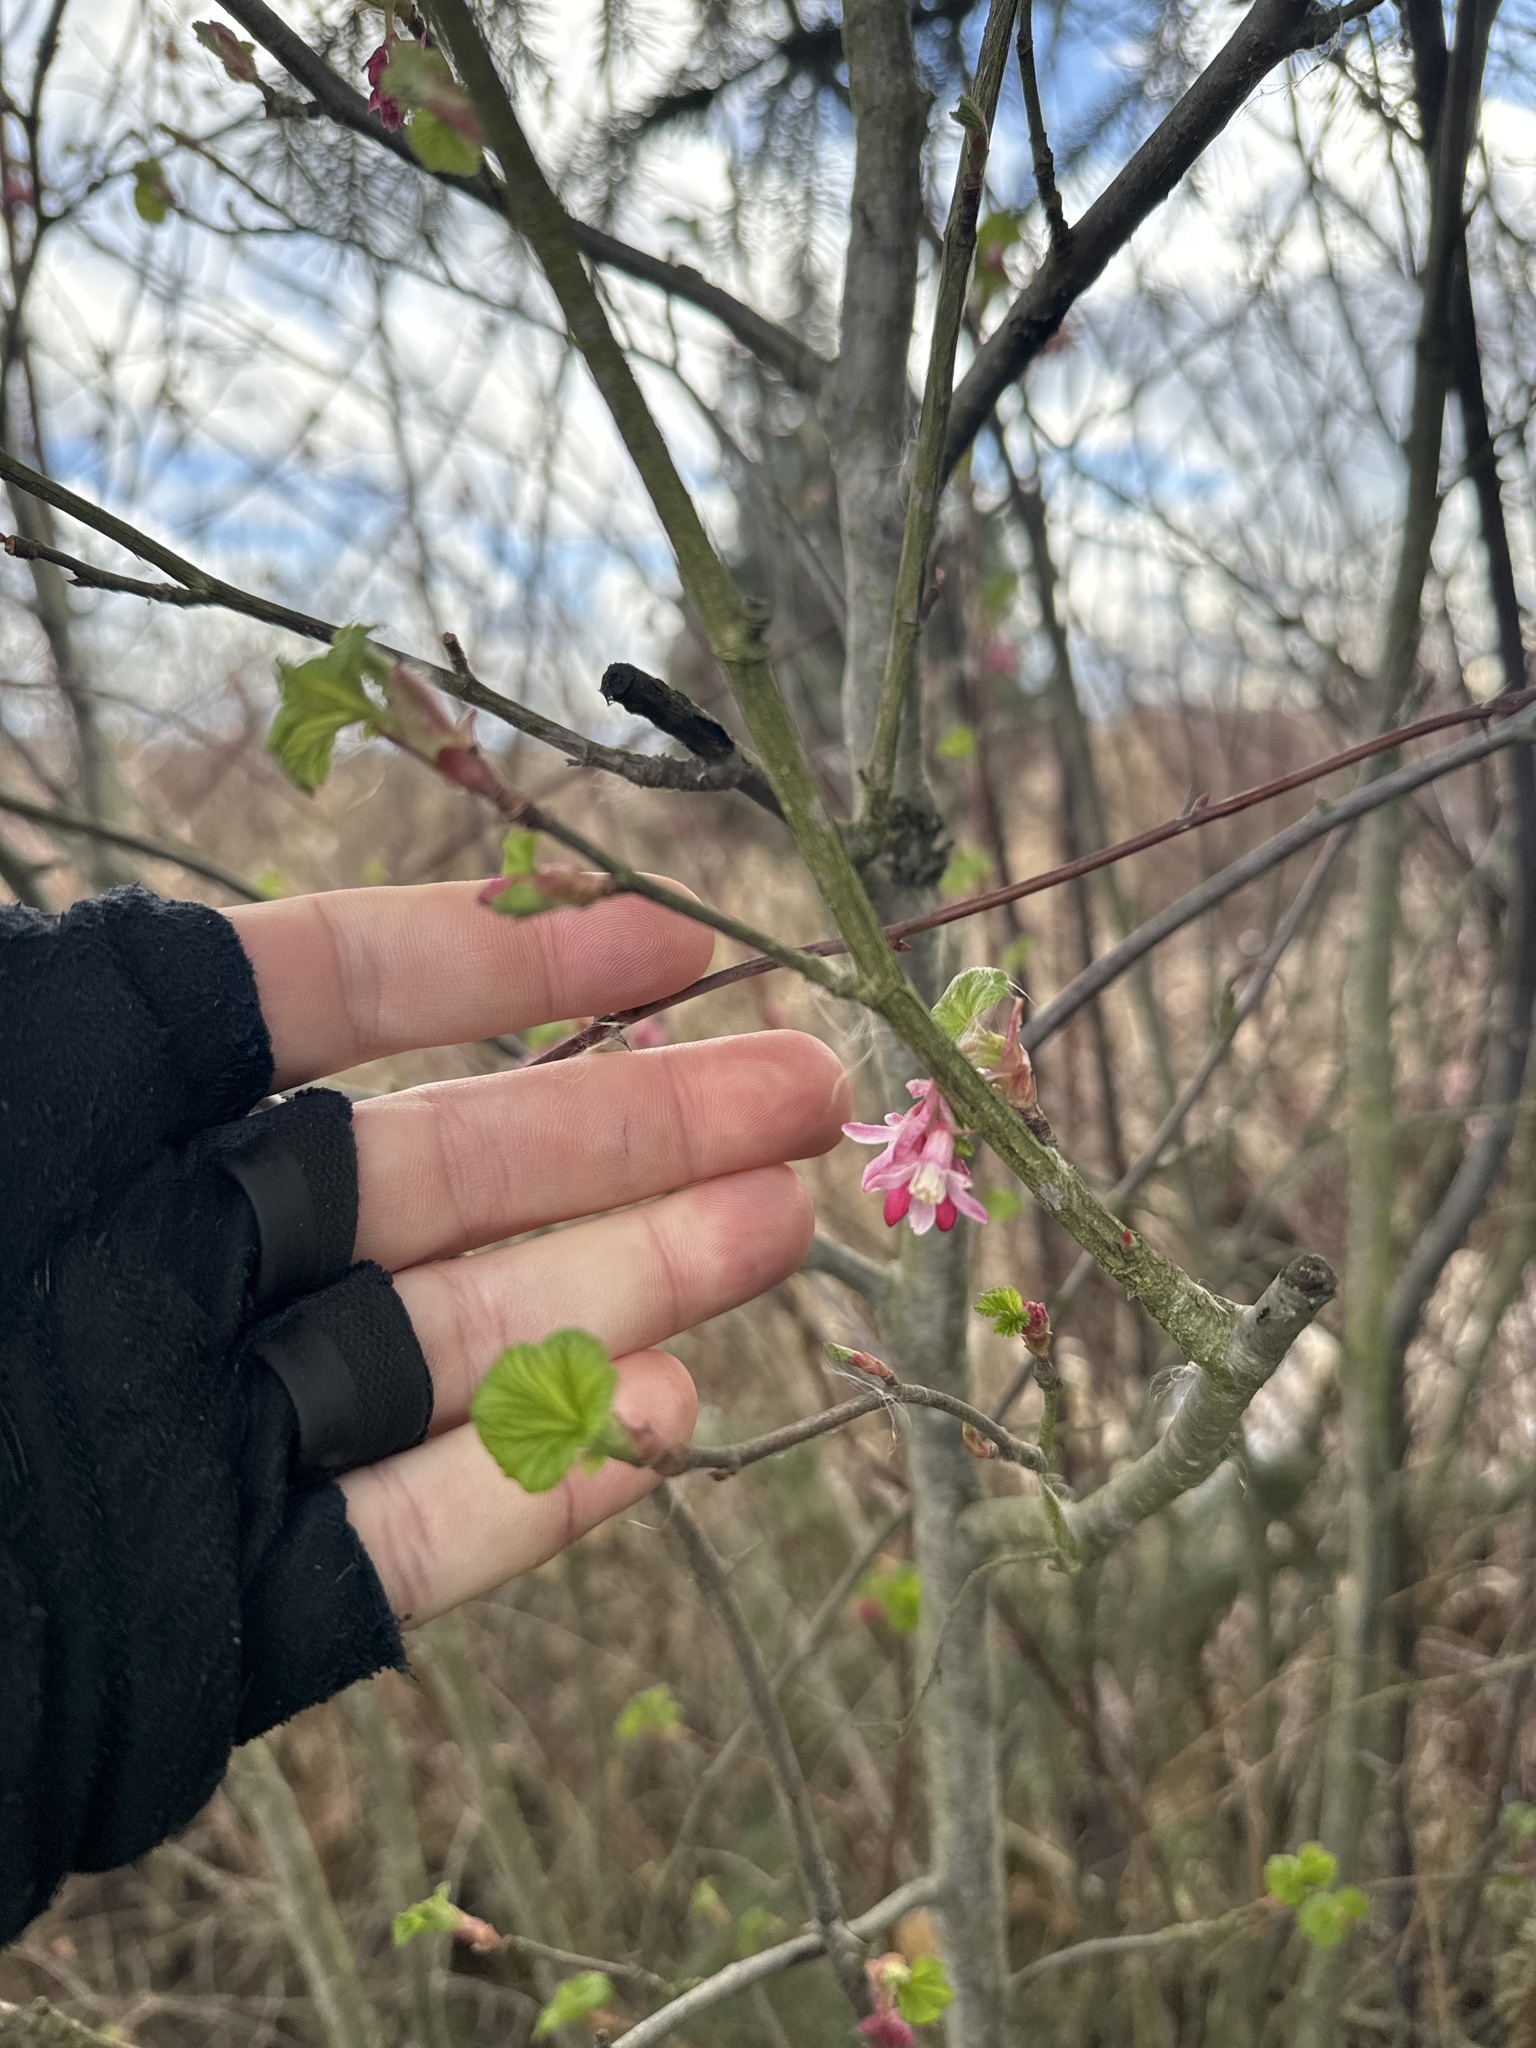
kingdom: Plantae
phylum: Tracheophyta
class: Magnoliopsida
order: Saxifragales
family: Grossulariaceae
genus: Ribes
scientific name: Ribes sanguineum
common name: Flowering currant
